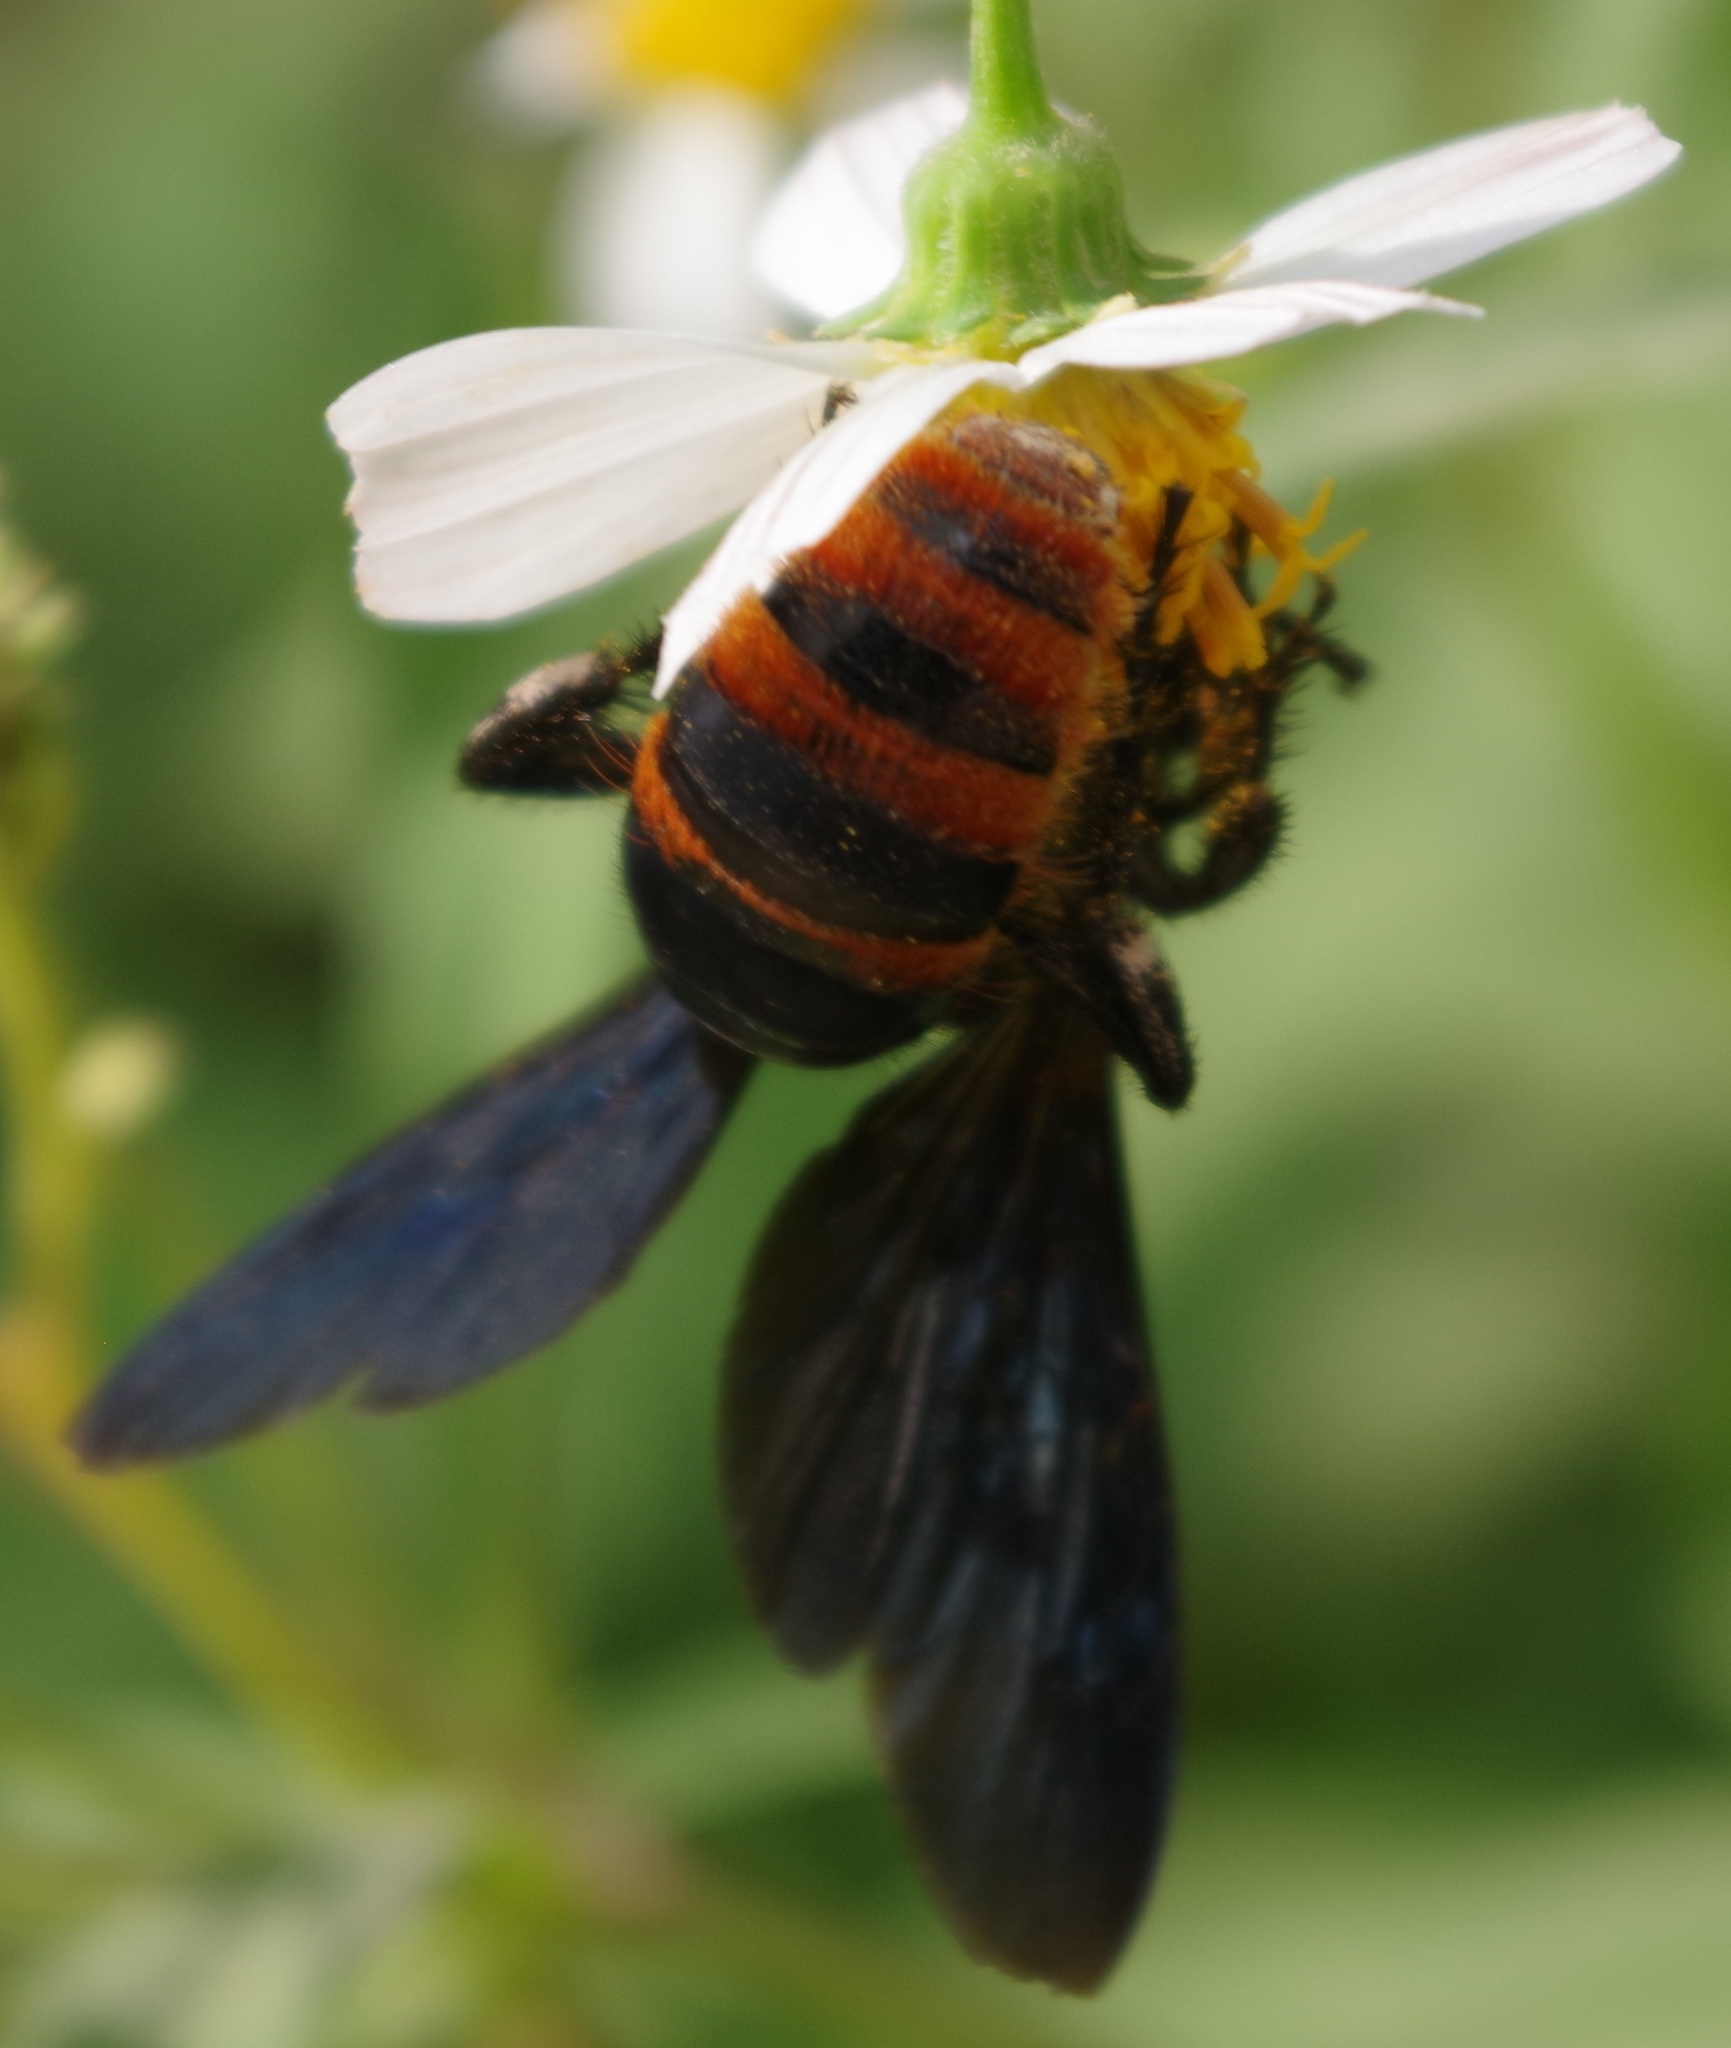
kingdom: Animalia
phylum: Arthropoda
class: Insecta
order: Hymenoptera
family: Scoliidae
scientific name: Scoliidae
